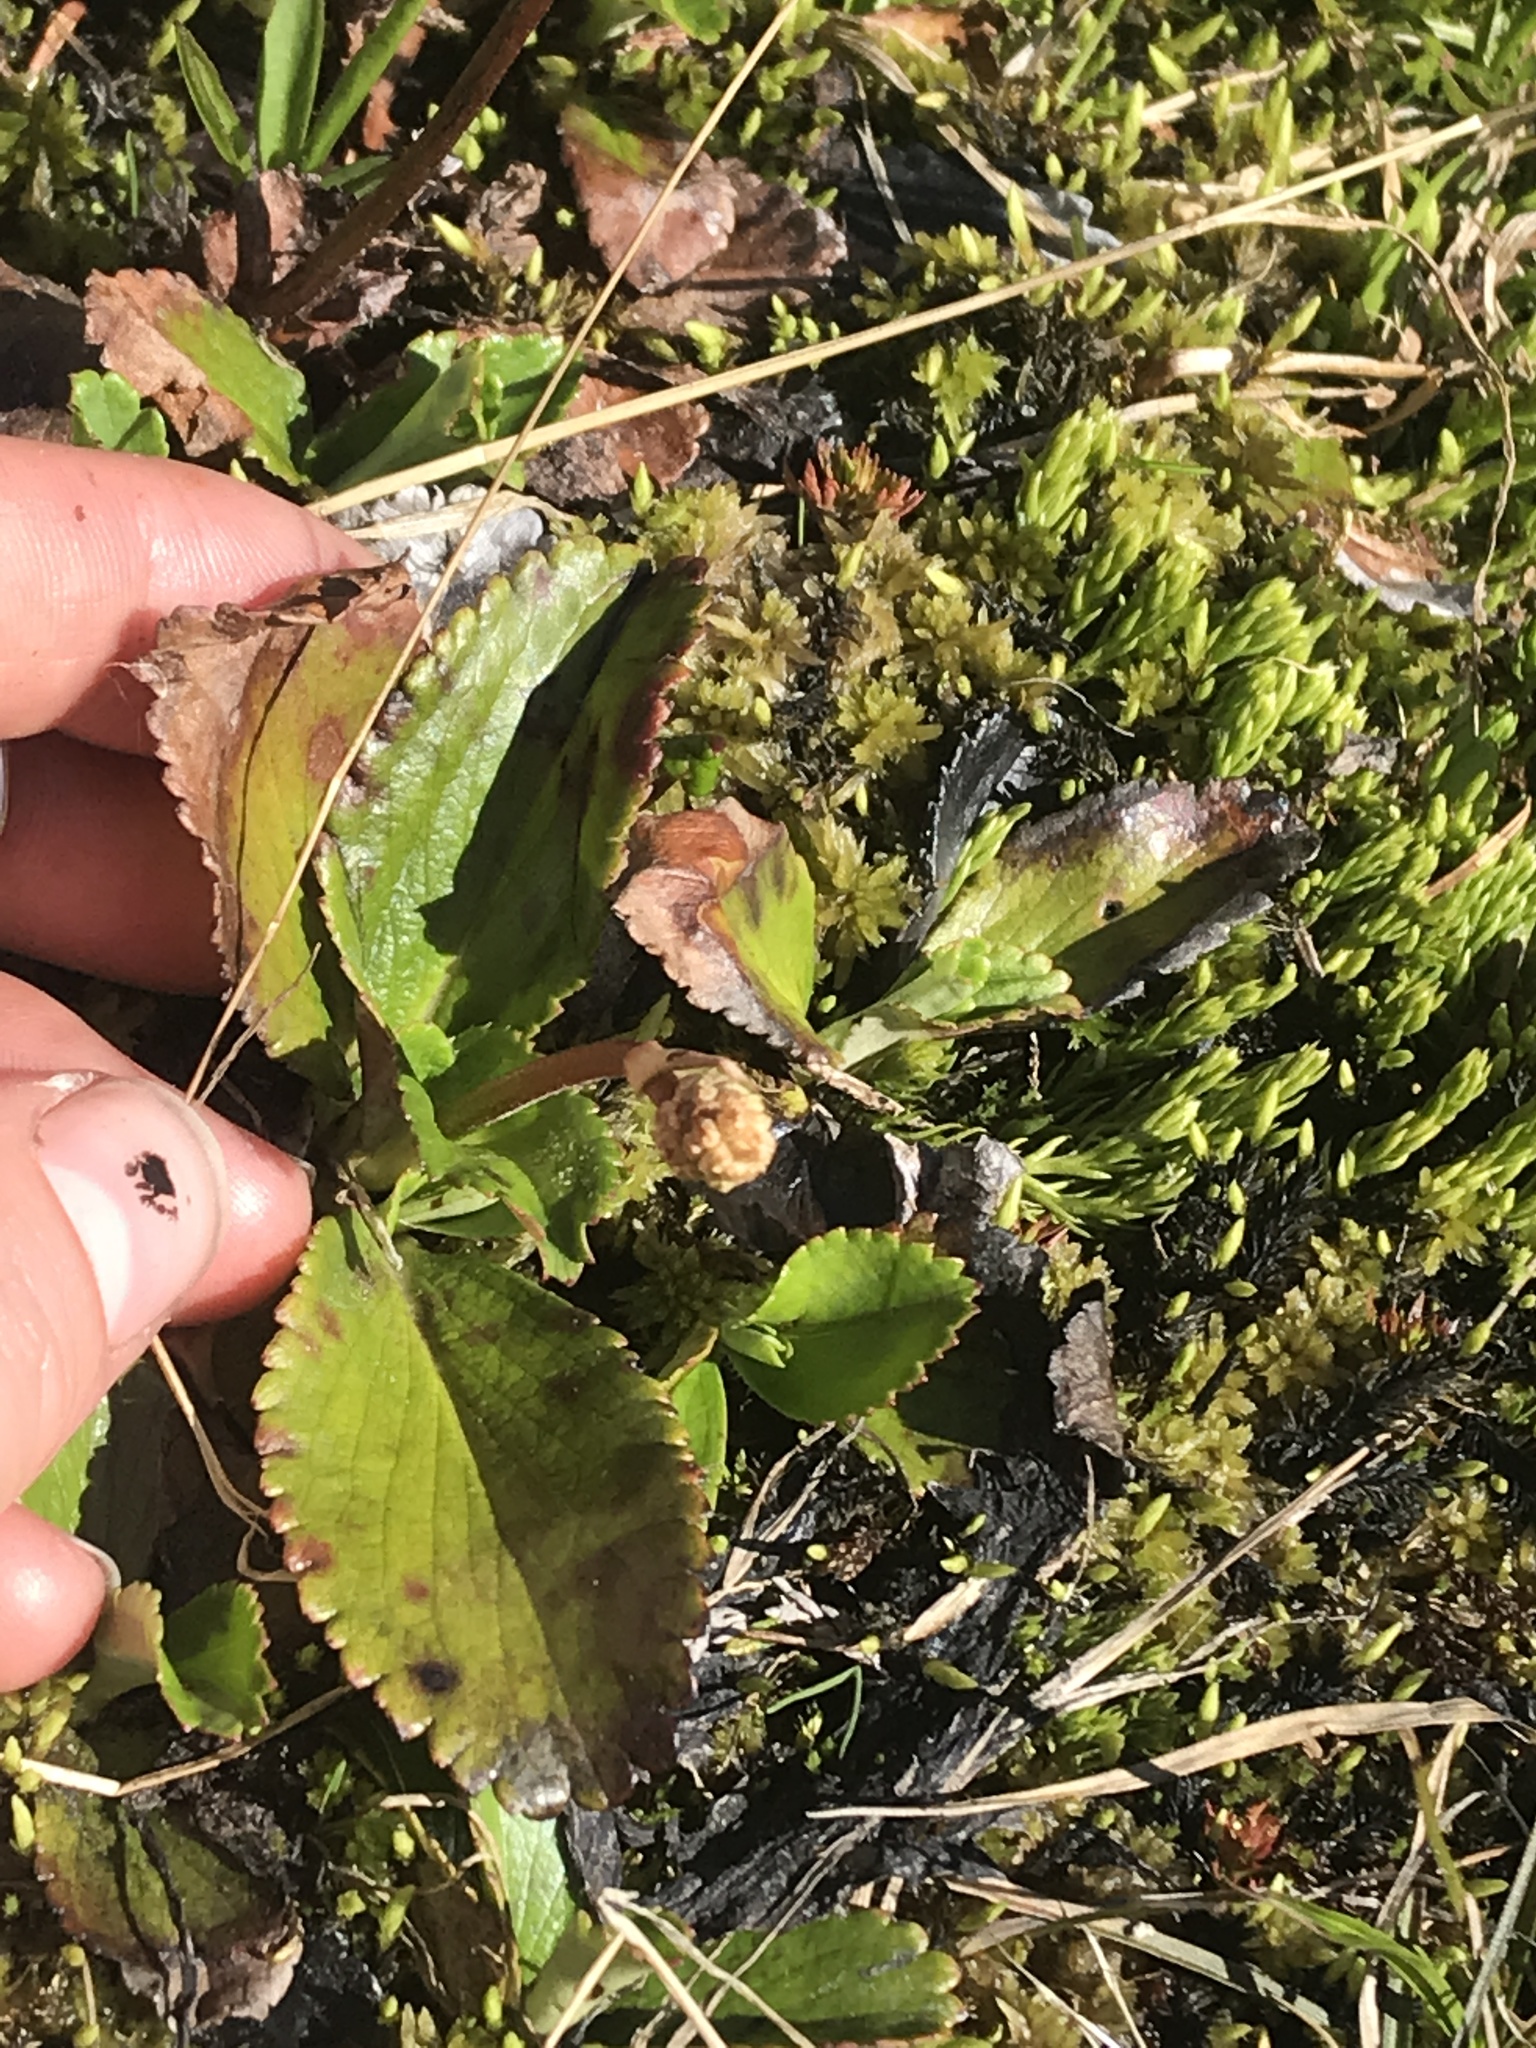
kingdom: Plantae
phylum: Tracheophyta
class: Magnoliopsida
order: Saxifragales
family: Saxifragaceae
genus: Leptarrhena
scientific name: Leptarrhena pyrolifolia
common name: Leatherleaf-saxifrage
